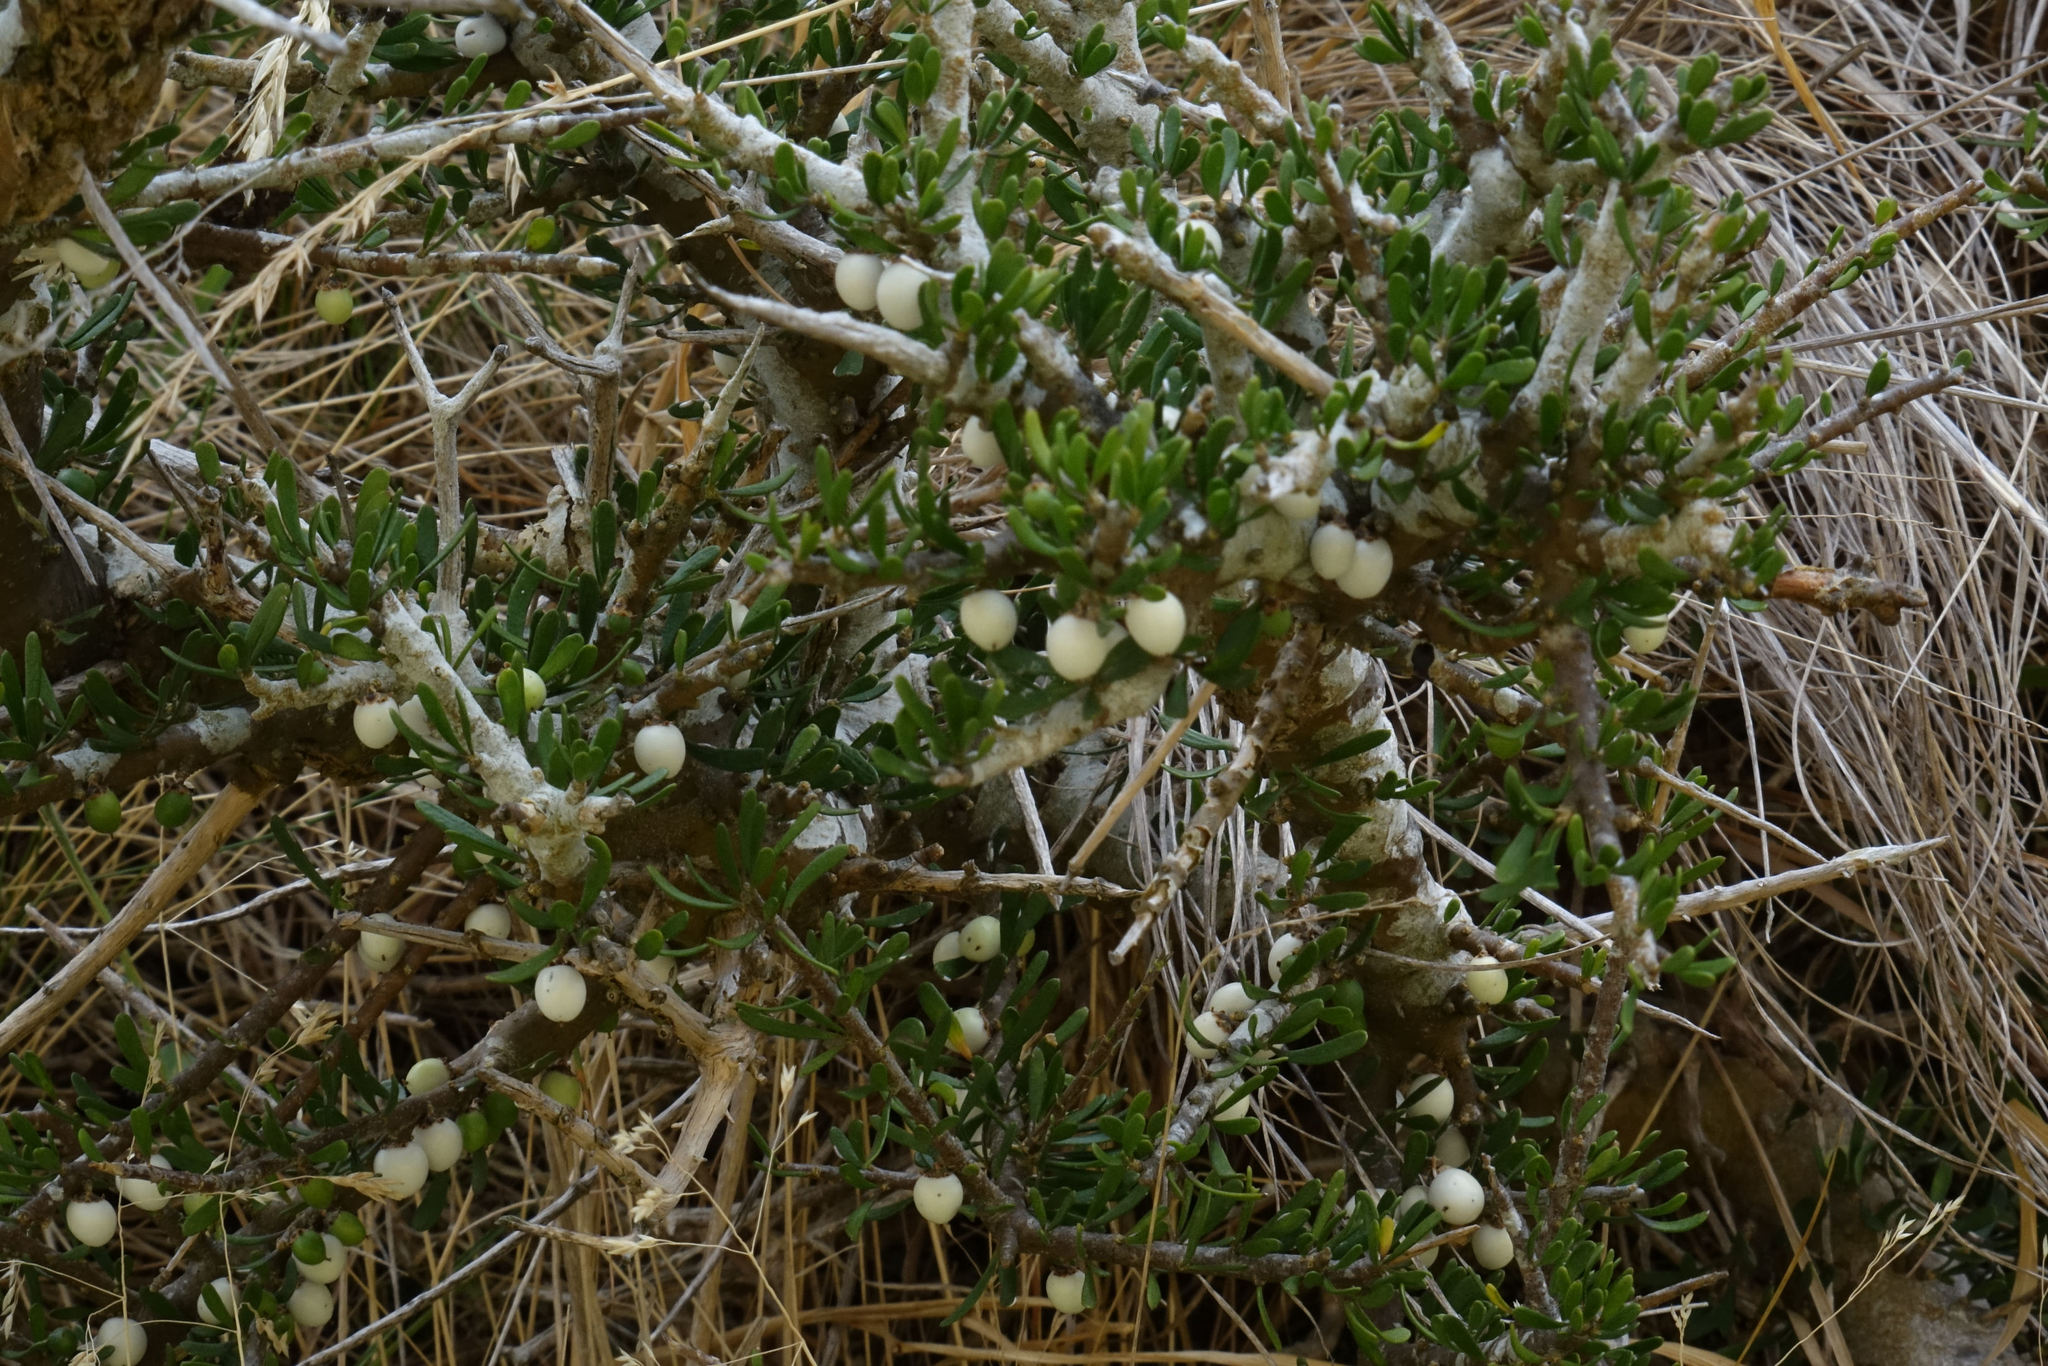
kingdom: Plantae
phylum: Tracheophyta
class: Magnoliopsida
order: Malpighiales
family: Violaceae
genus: Melicytus
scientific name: Melicytus alpinus
